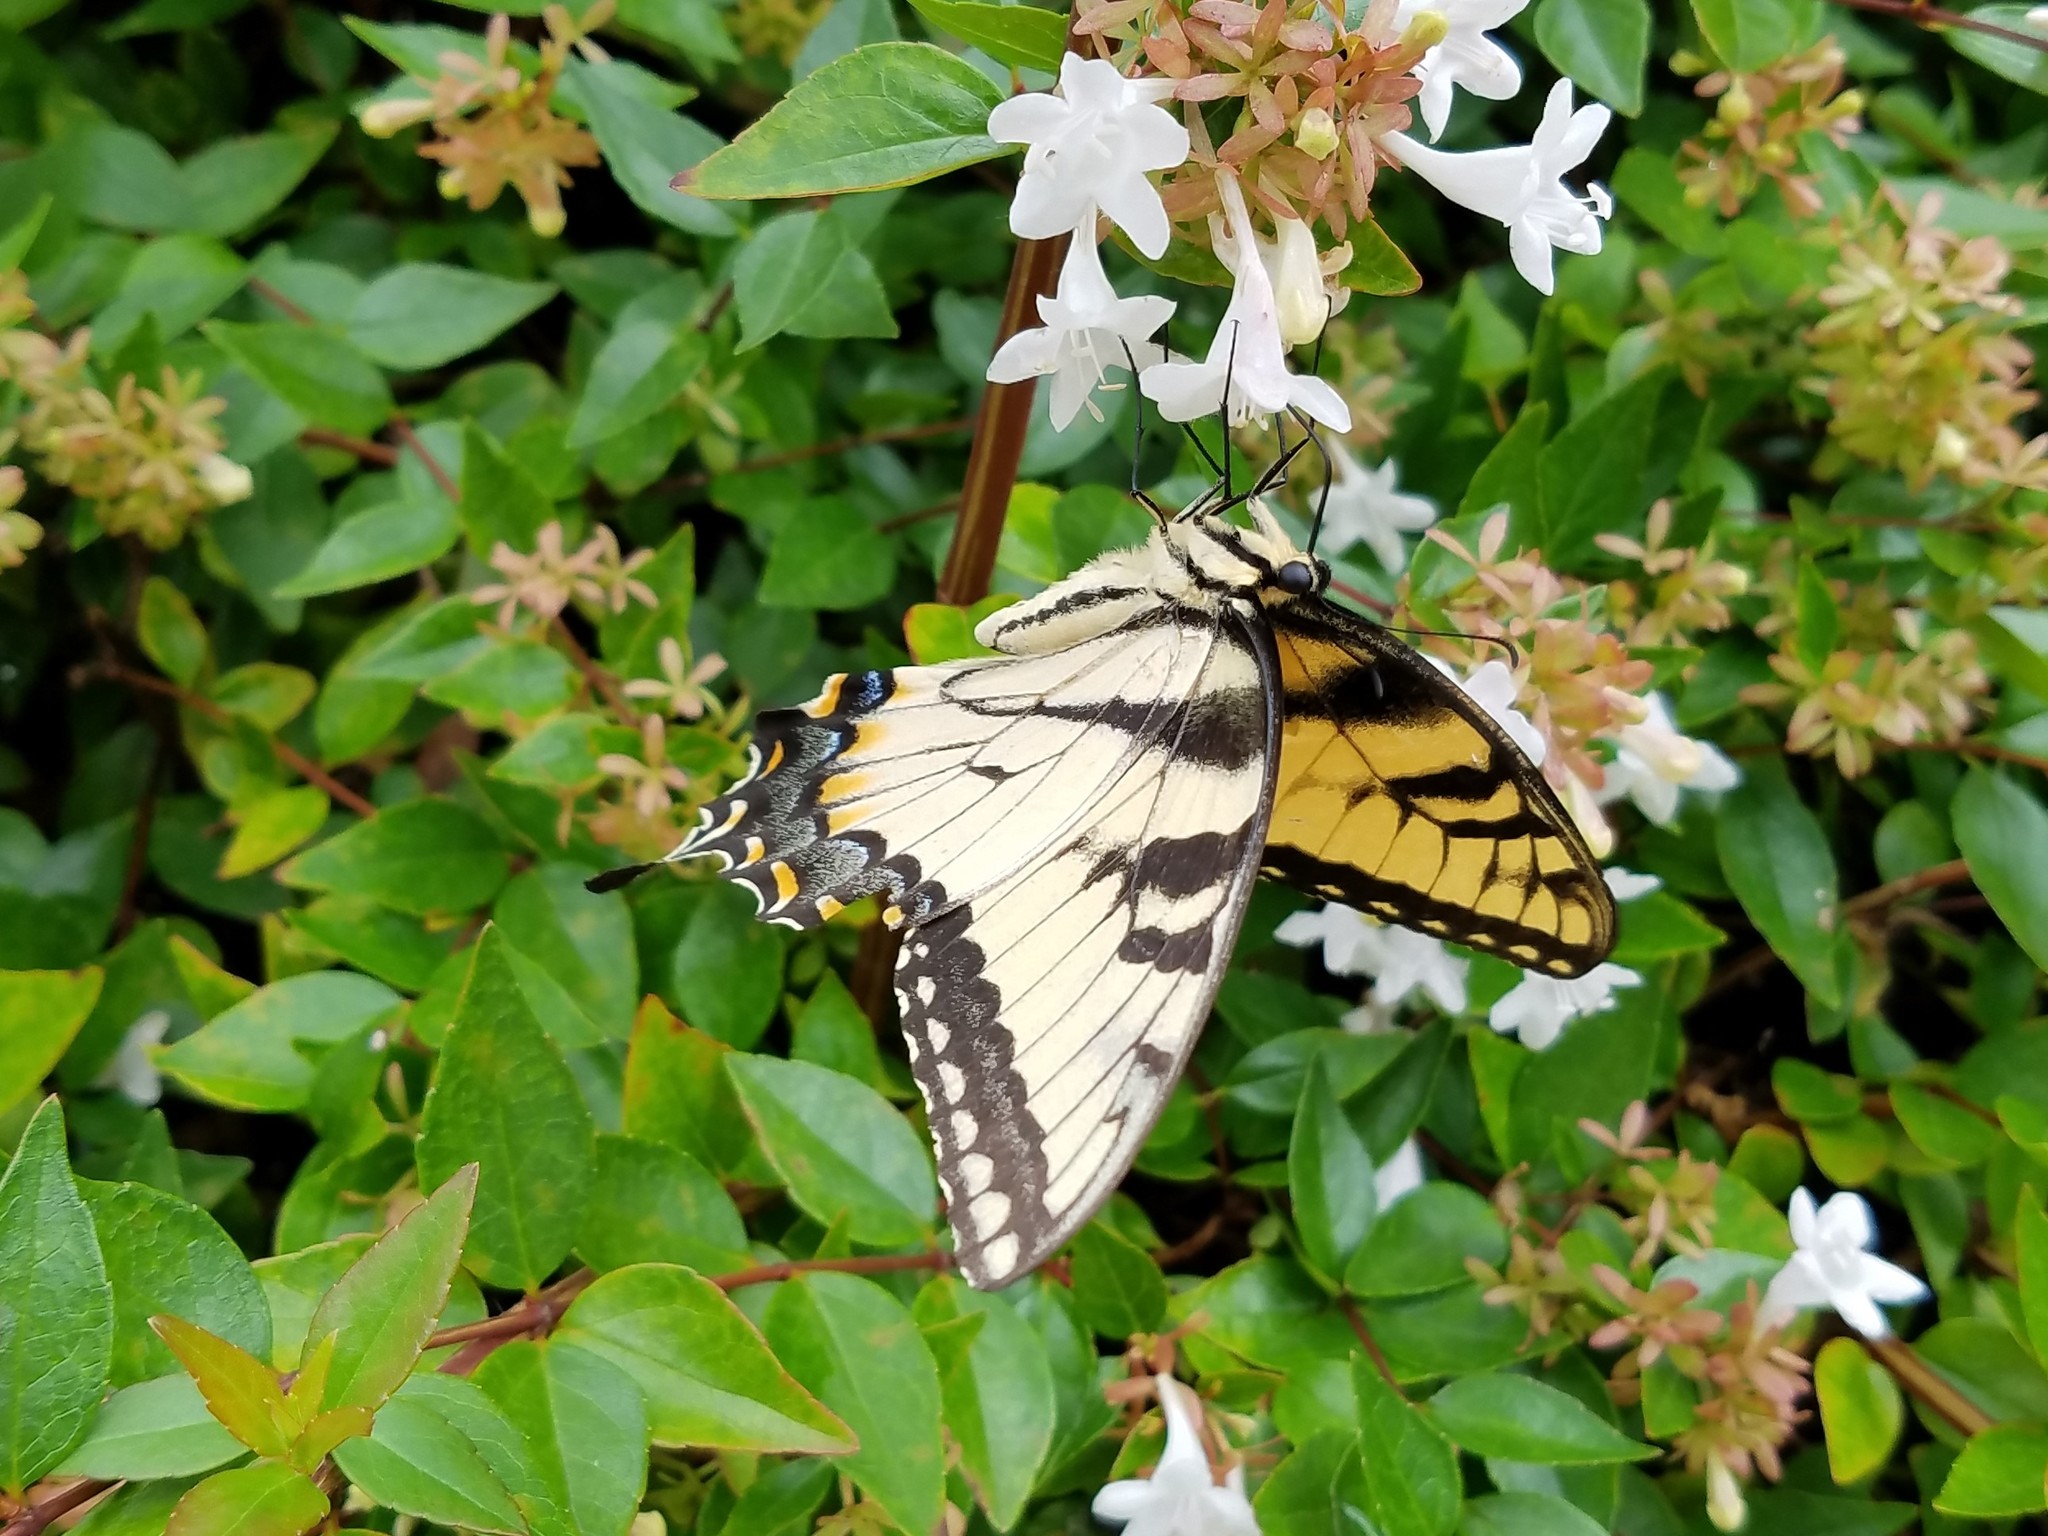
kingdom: Animalia
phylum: Arthropoda
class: Insecta
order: Lepidoptera
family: Papilionidae
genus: Papilio
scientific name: Papilio glaucus
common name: Tiger swallowtail
